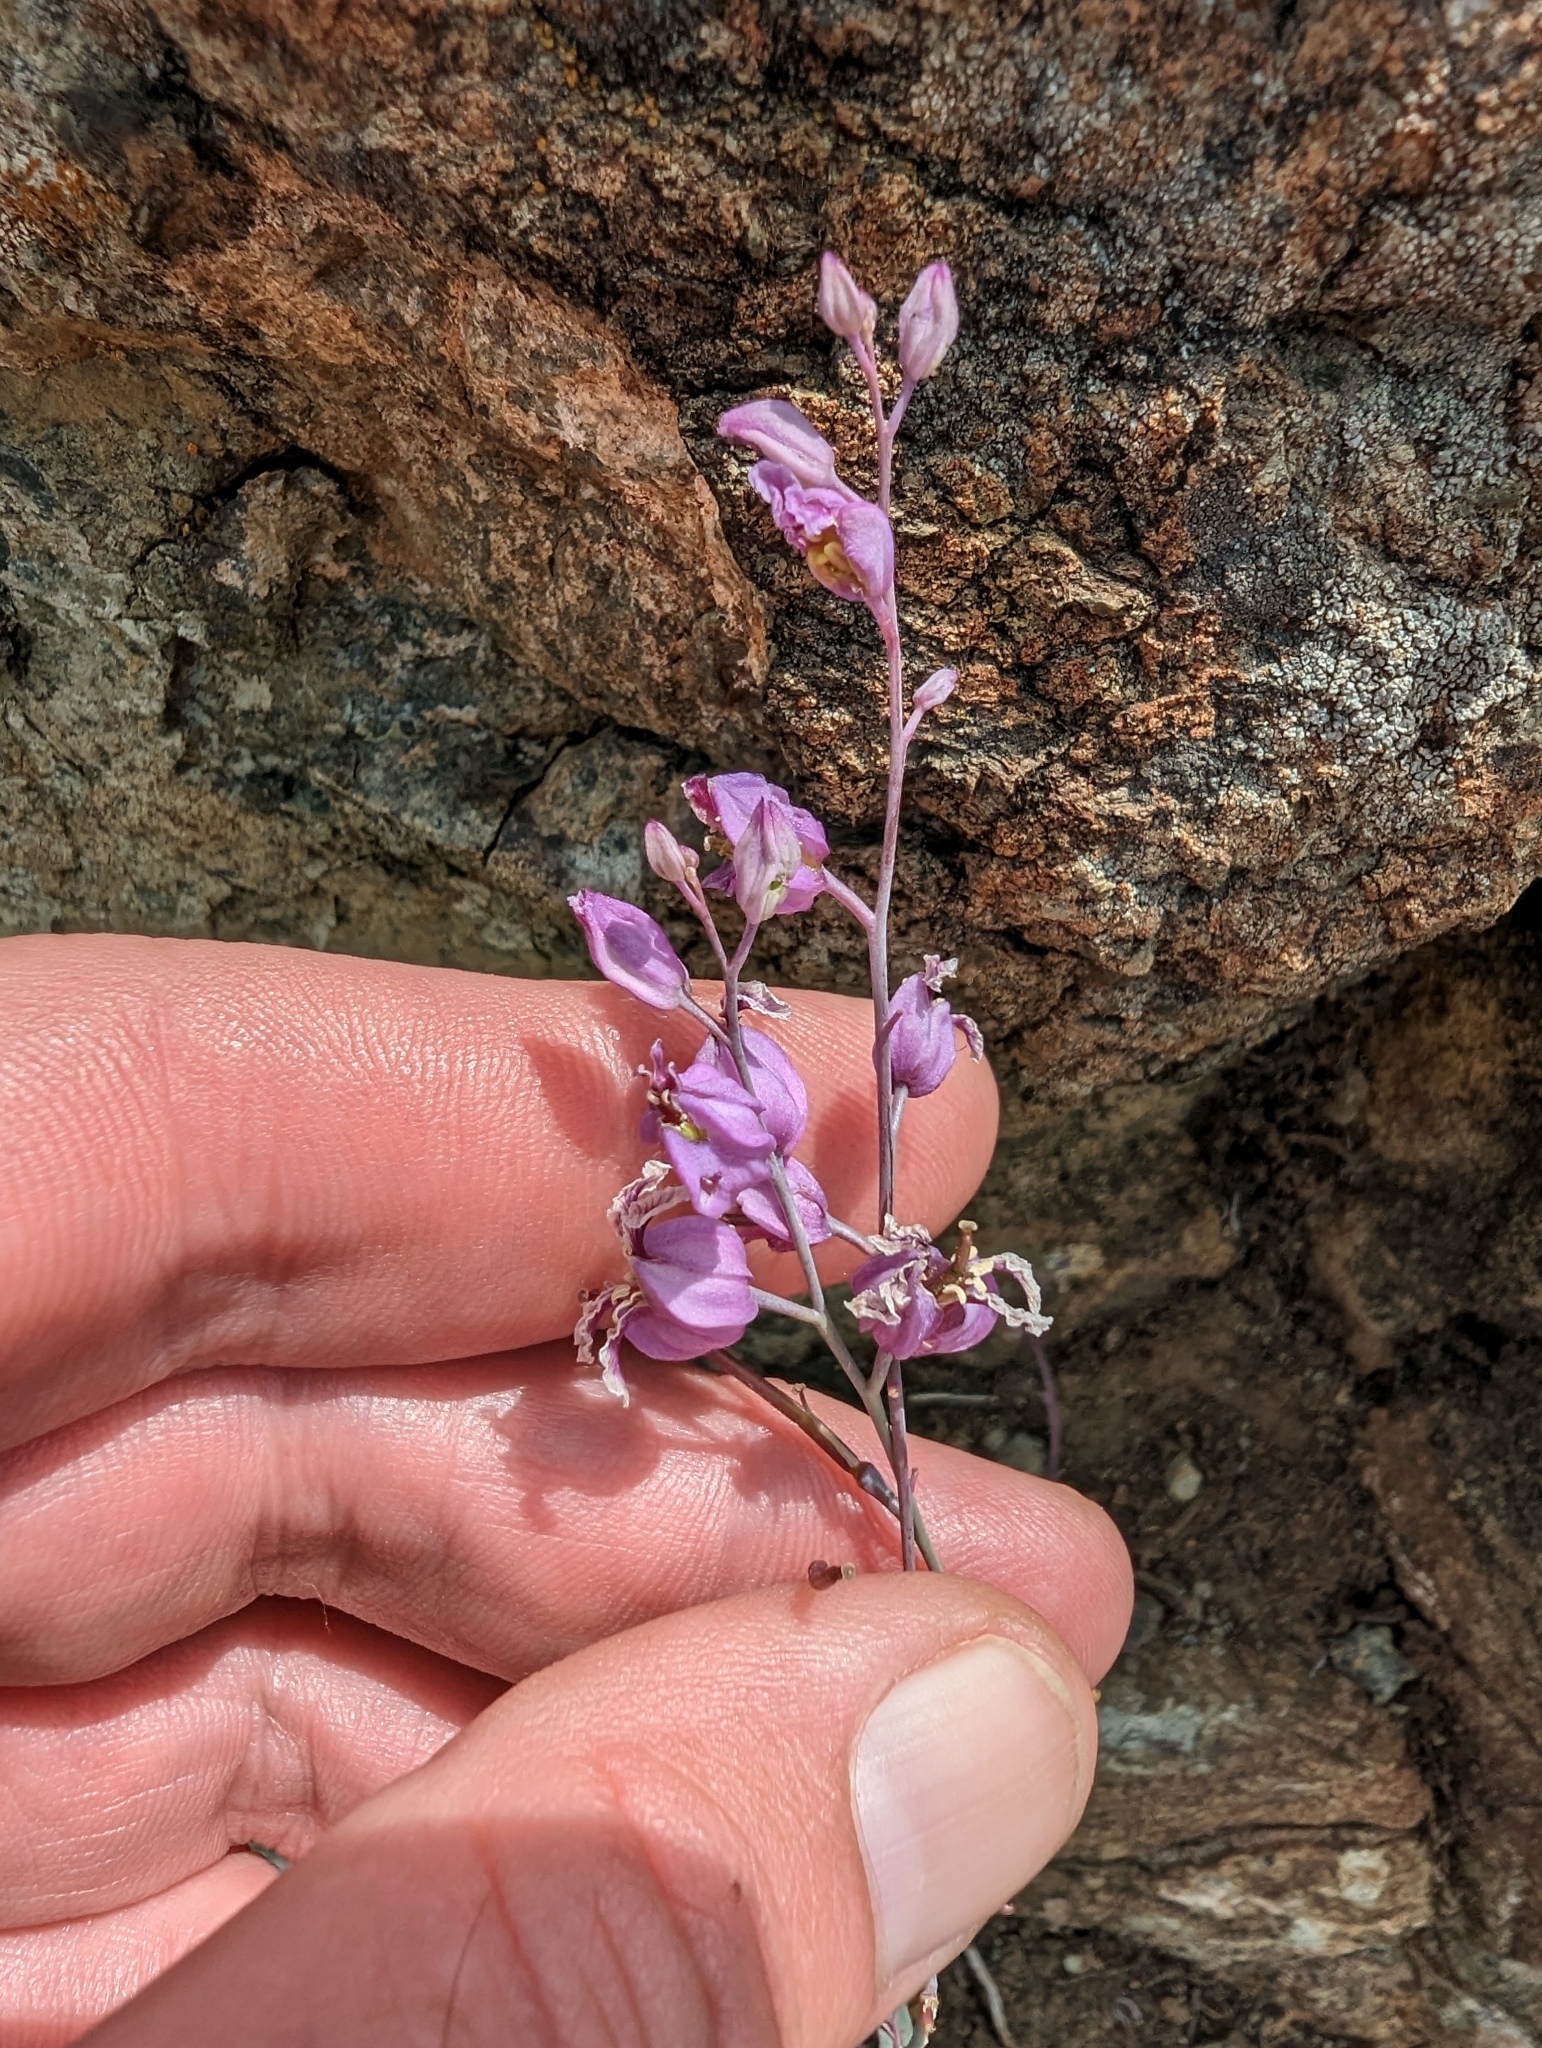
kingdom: Plantae
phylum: Tracheophyta
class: Magnoliopsida
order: Brassicales
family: Brassicaceae
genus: Streptanthus
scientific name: Streptanthus glandulosus
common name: Jewel-flower
